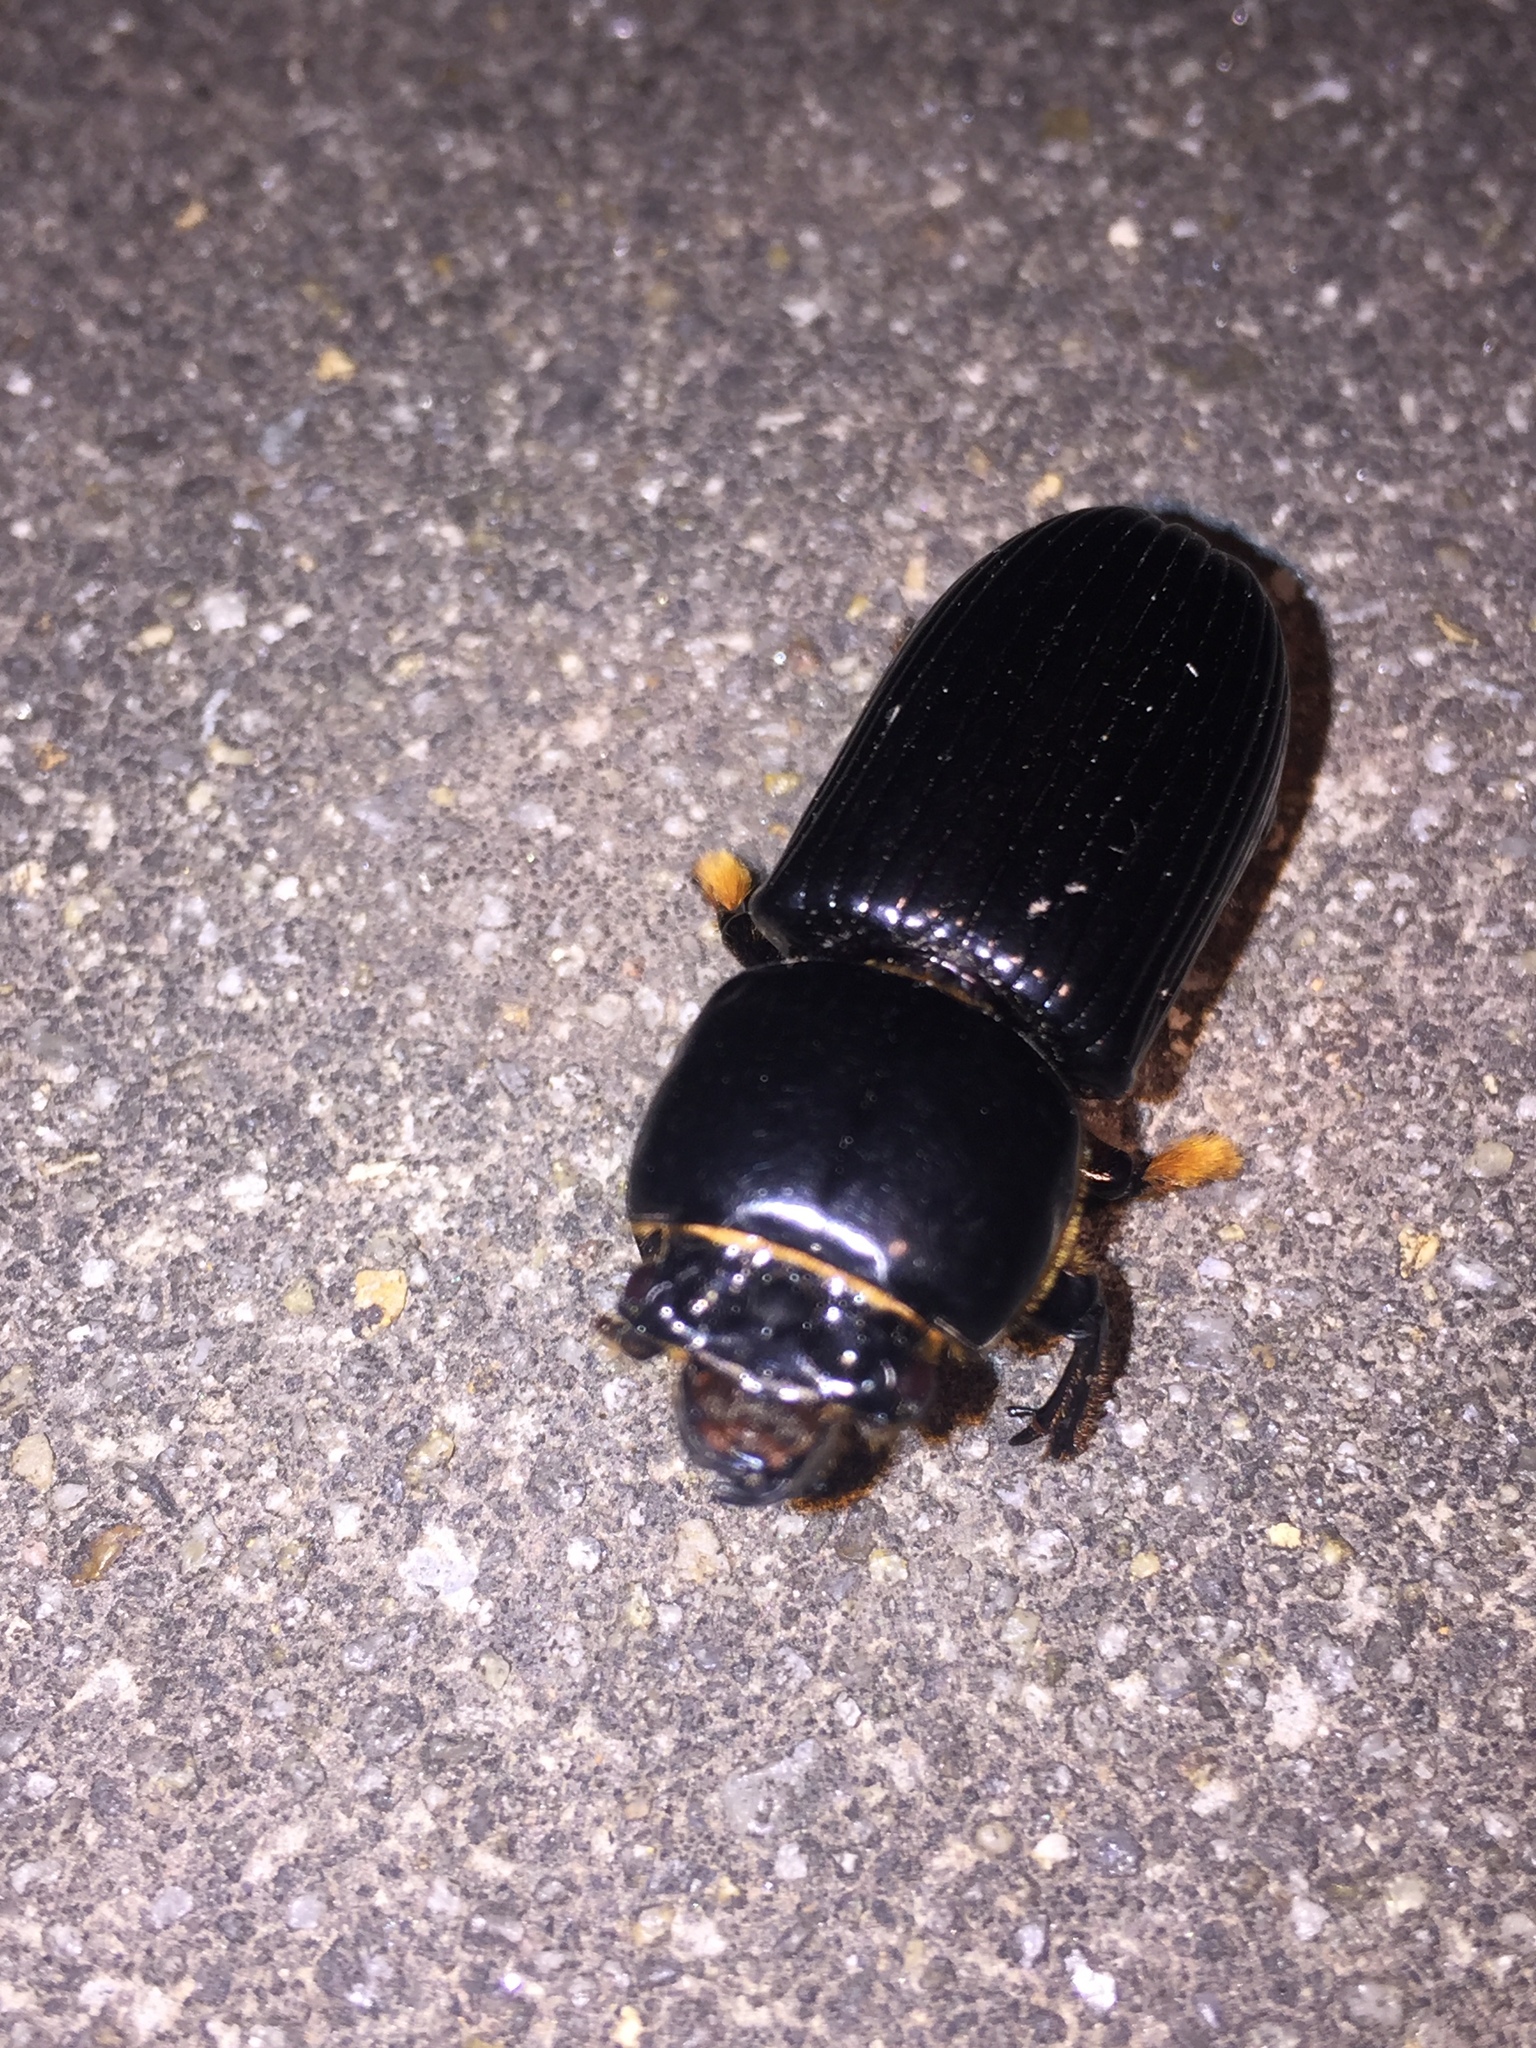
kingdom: Animalia
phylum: Arthropoda
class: Insecta
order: Coleoptera
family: Passalidae
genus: Odontotaenius
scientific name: Odontotaenius disjunctus
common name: Patent leather beetle
